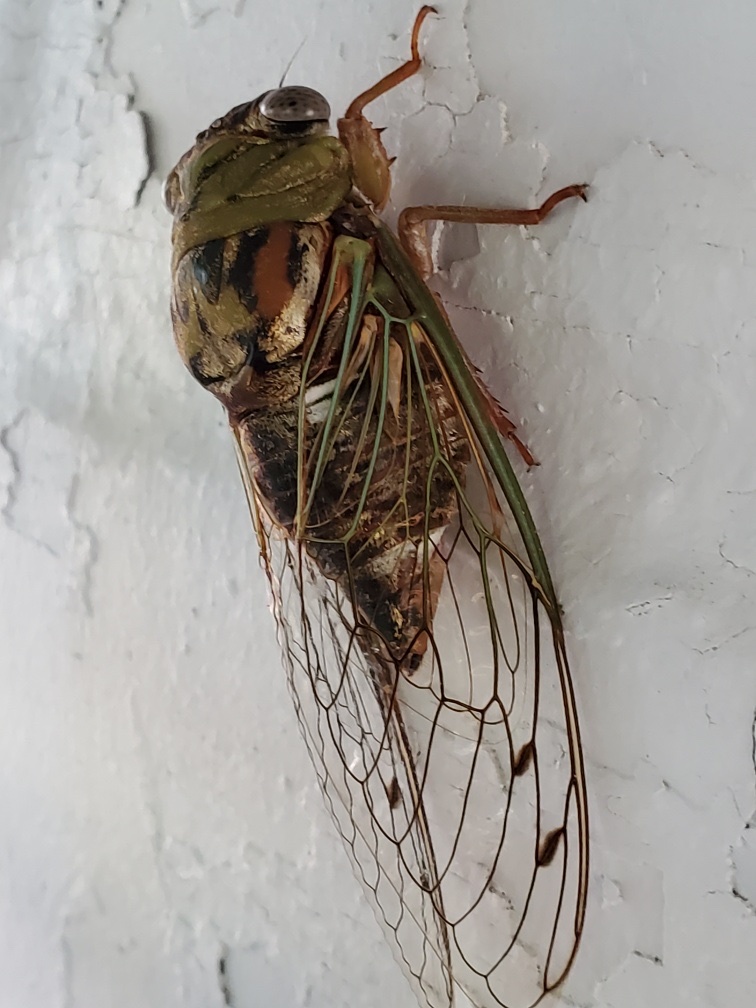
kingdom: Animalia
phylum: Arthropoda
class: Insecta
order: Hemiptera
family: Cicadidae
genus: Megatibicen
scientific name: Megatibicen resh
